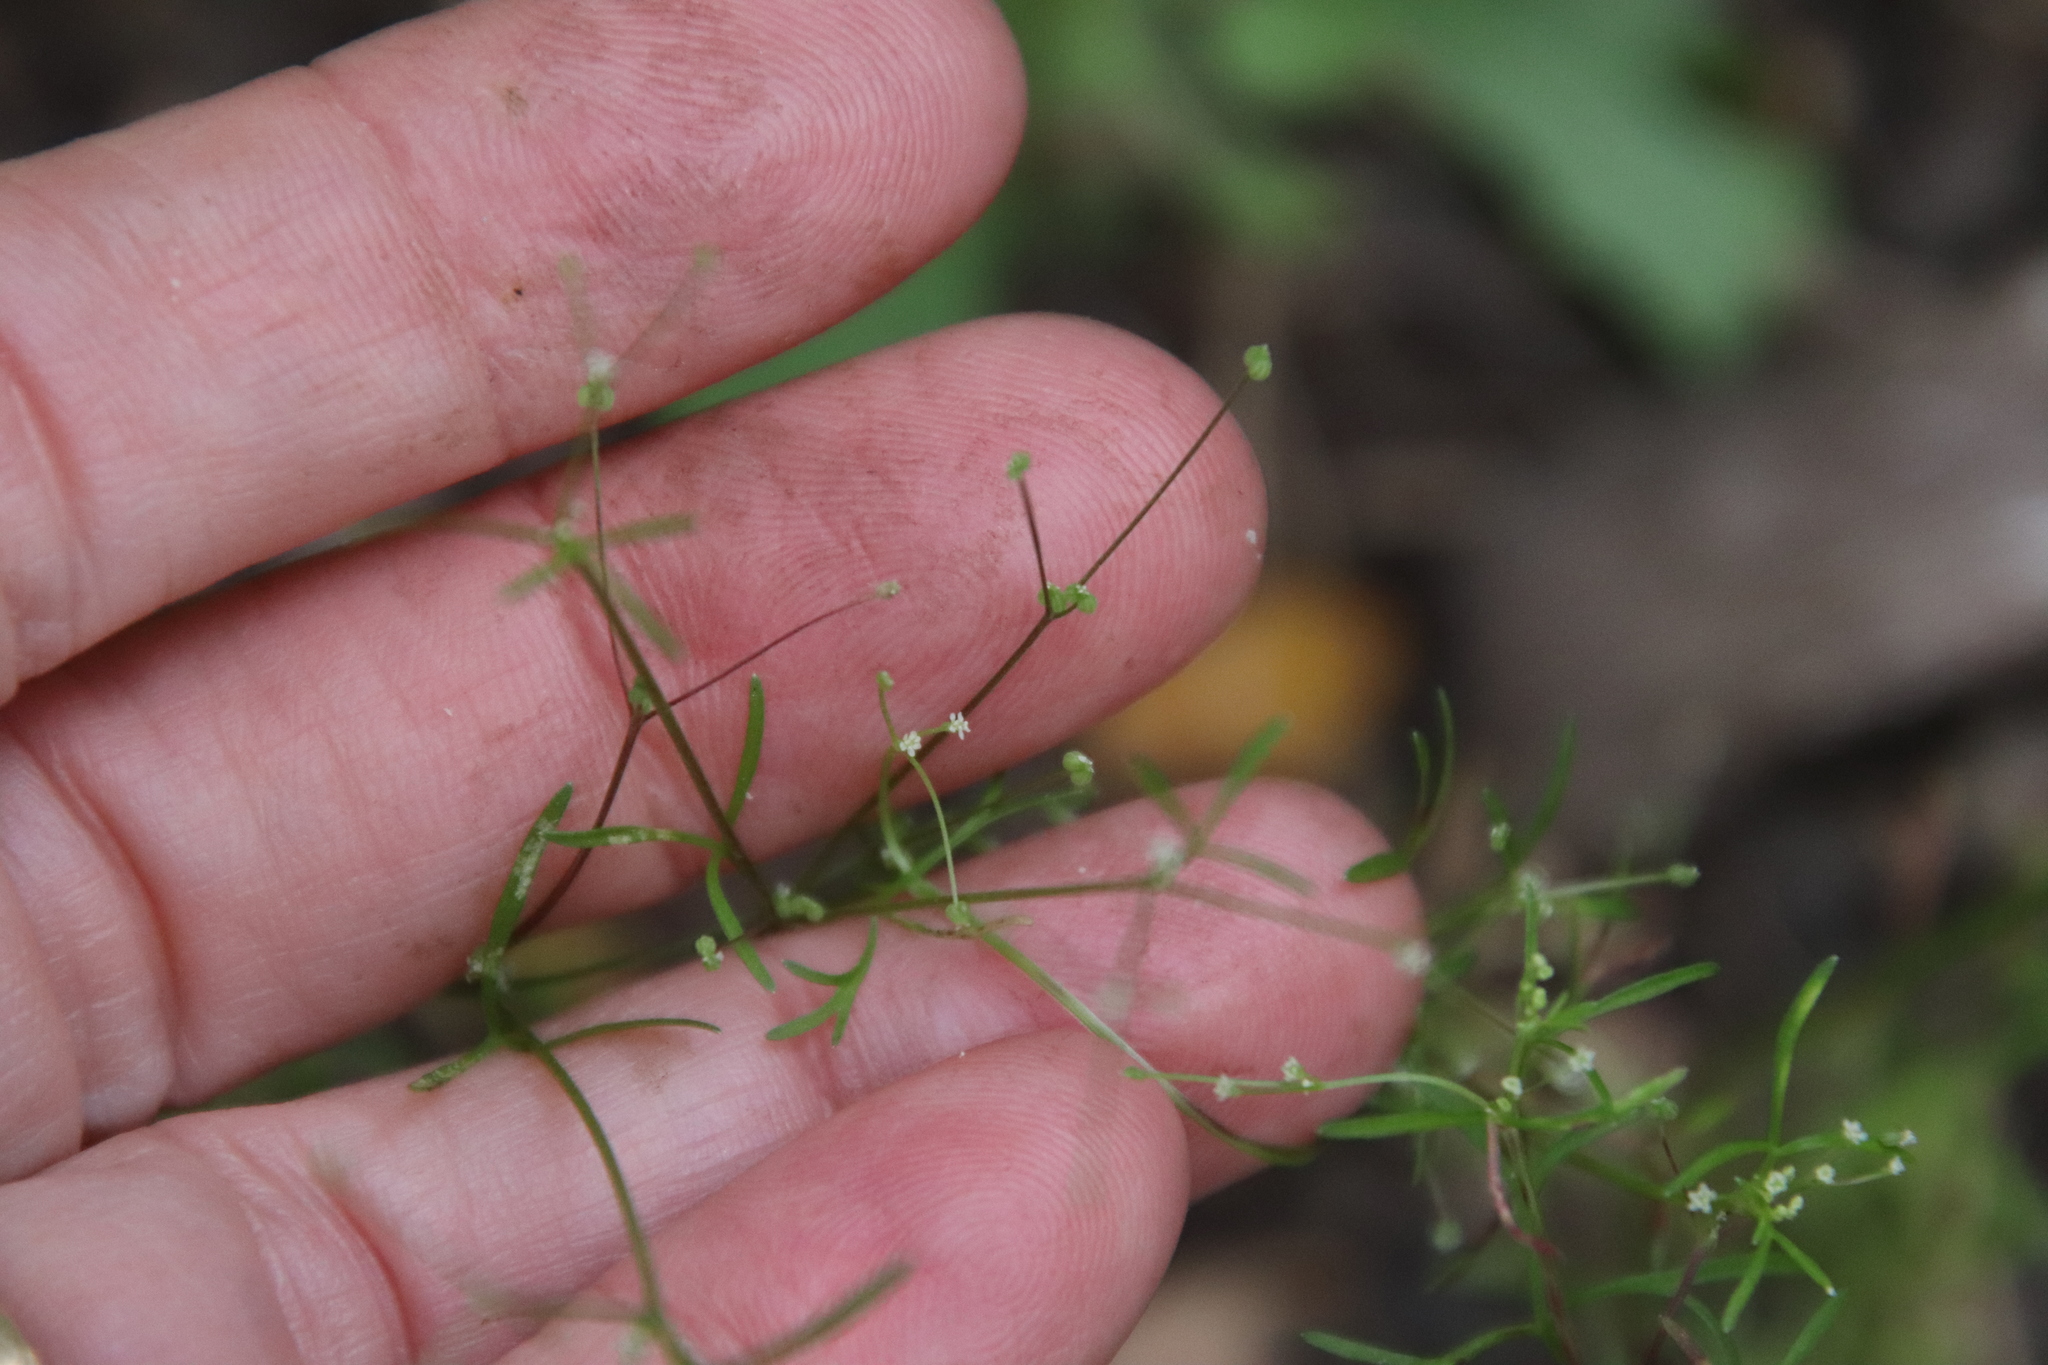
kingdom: Plantae
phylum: Tracheophyta
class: Magnoliopsida
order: Apiales
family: Apiaceae
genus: Apiastrum
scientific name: Apiastrum angustifolium
